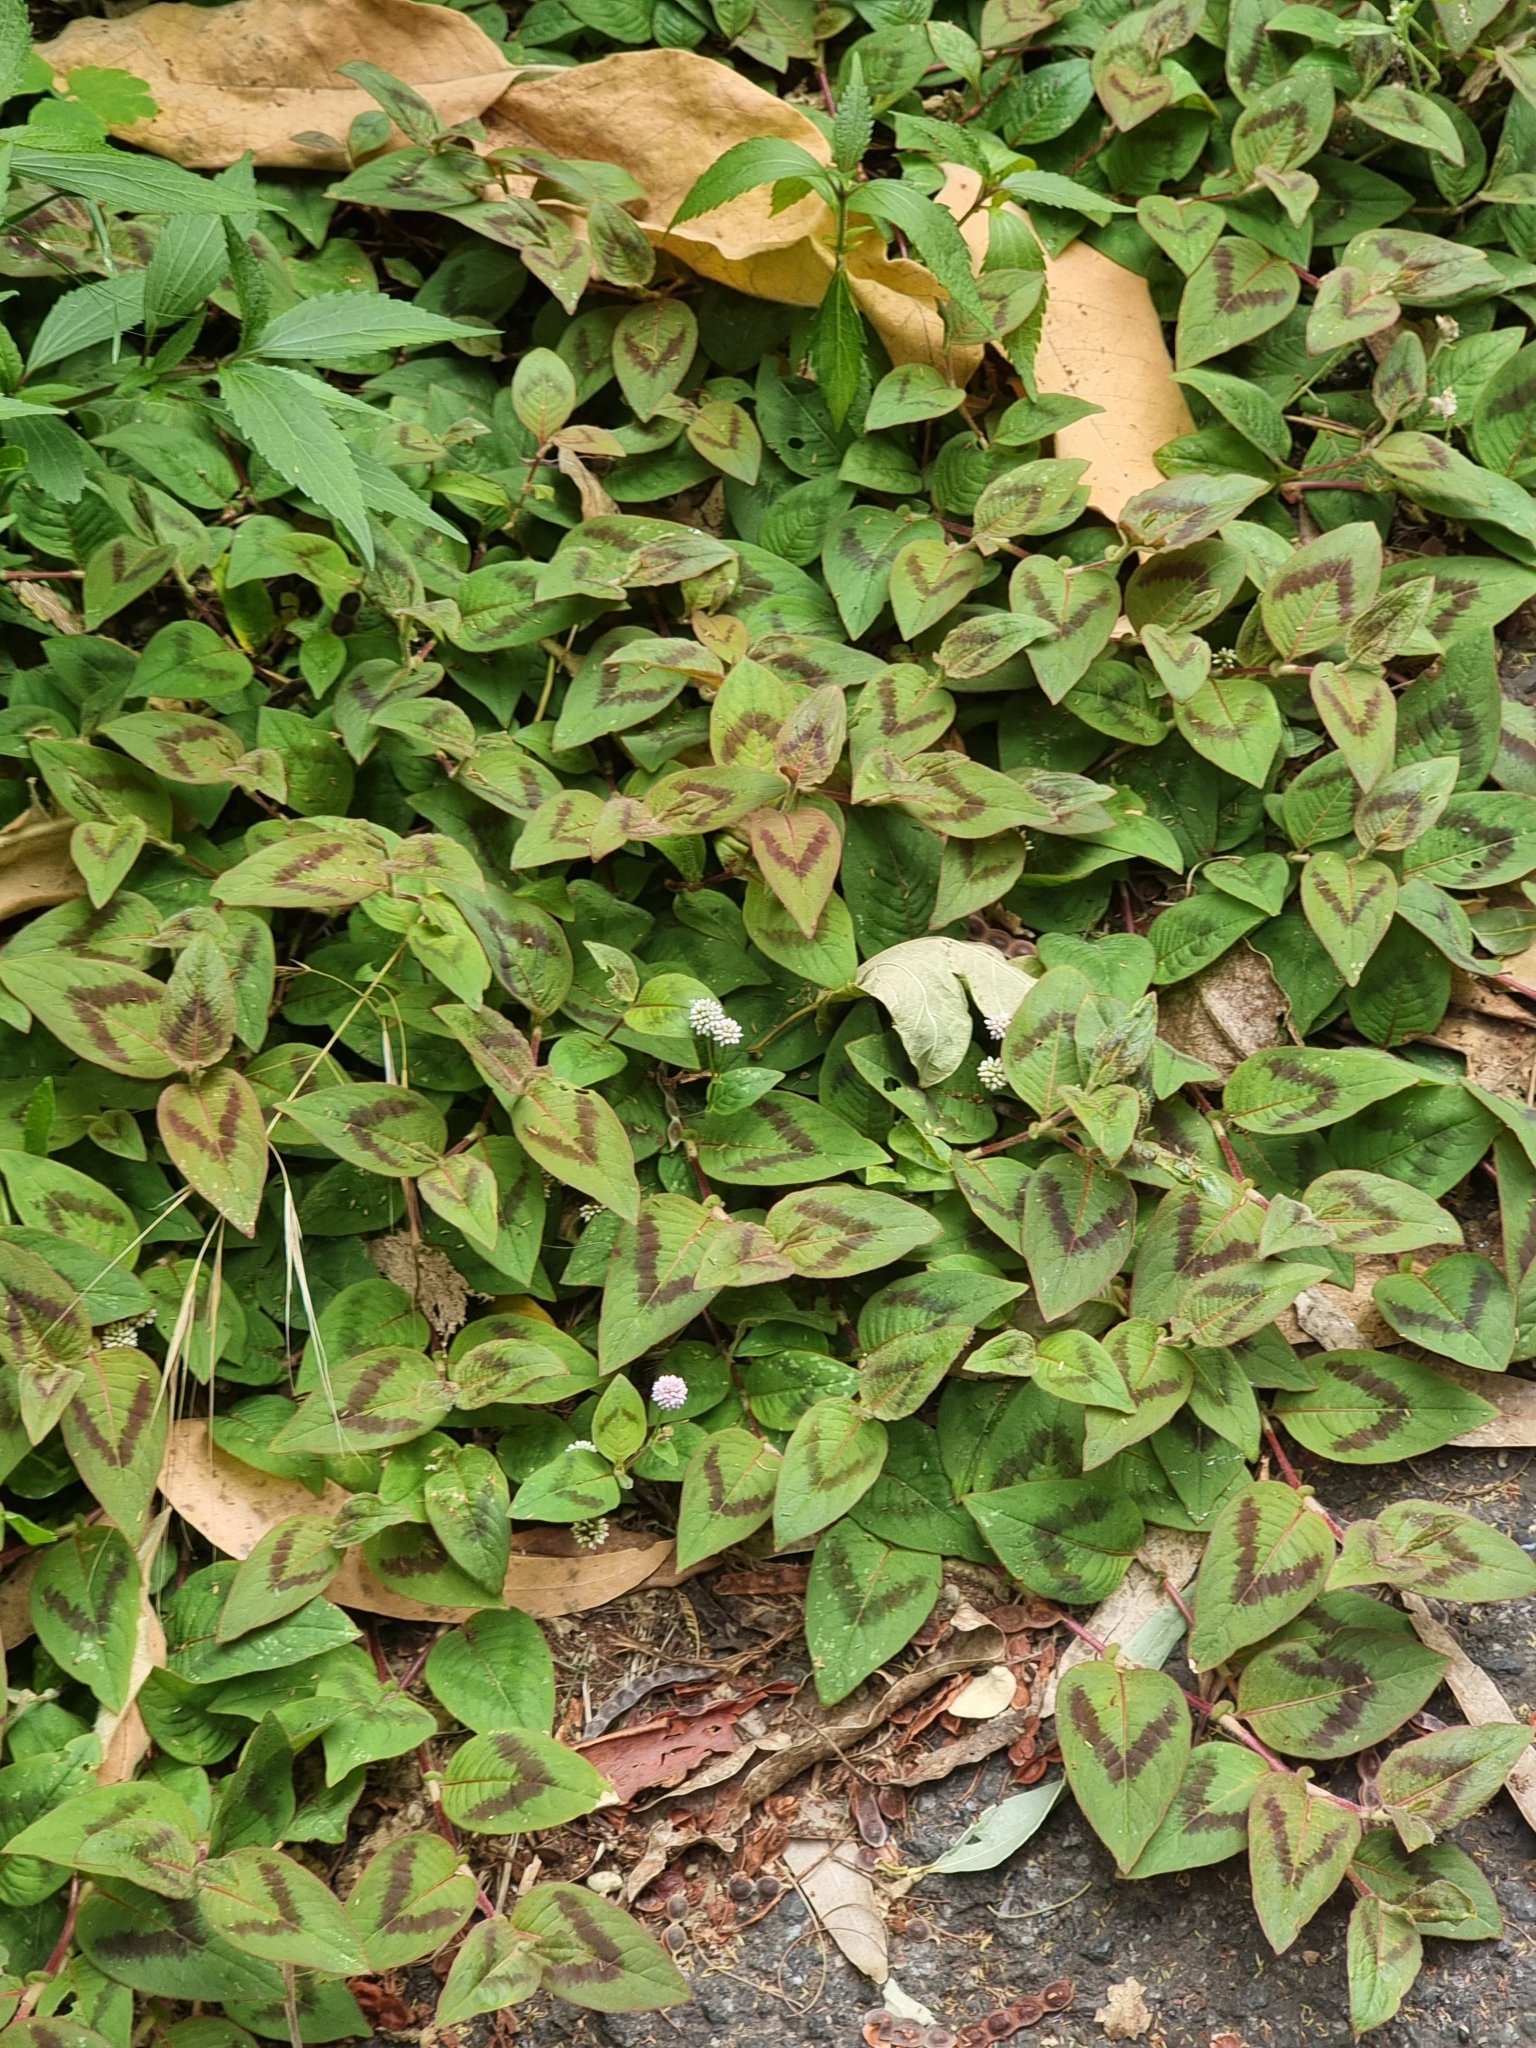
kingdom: Plantae
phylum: Tracheophyta
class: Magnoliopsida
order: Caryophyllales
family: Polygonaceae
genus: Persicaria
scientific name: Persicaria capitata
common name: Pinkhead smartweed
